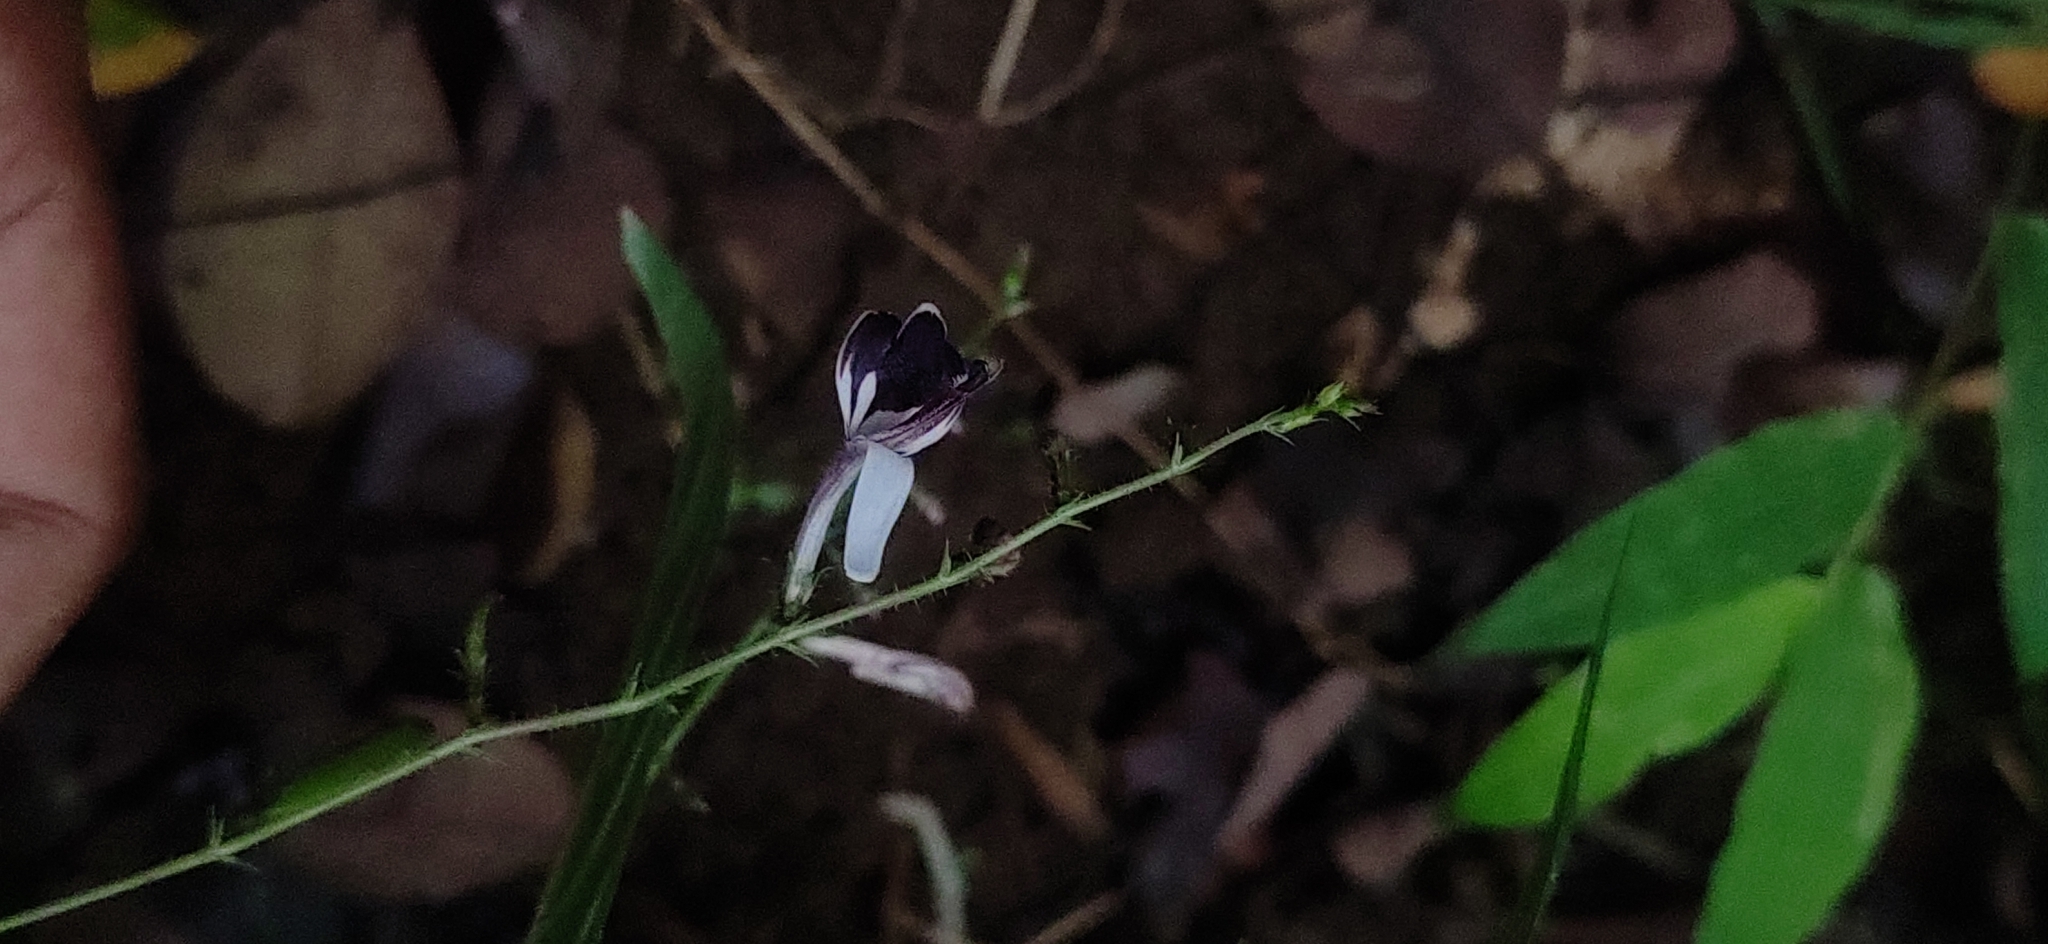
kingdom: Plantae
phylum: Tracheophyta
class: Magnoliopsida
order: Lamiales
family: Acanthaceae
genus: Andrographis
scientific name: Andrographis atropurpurea
